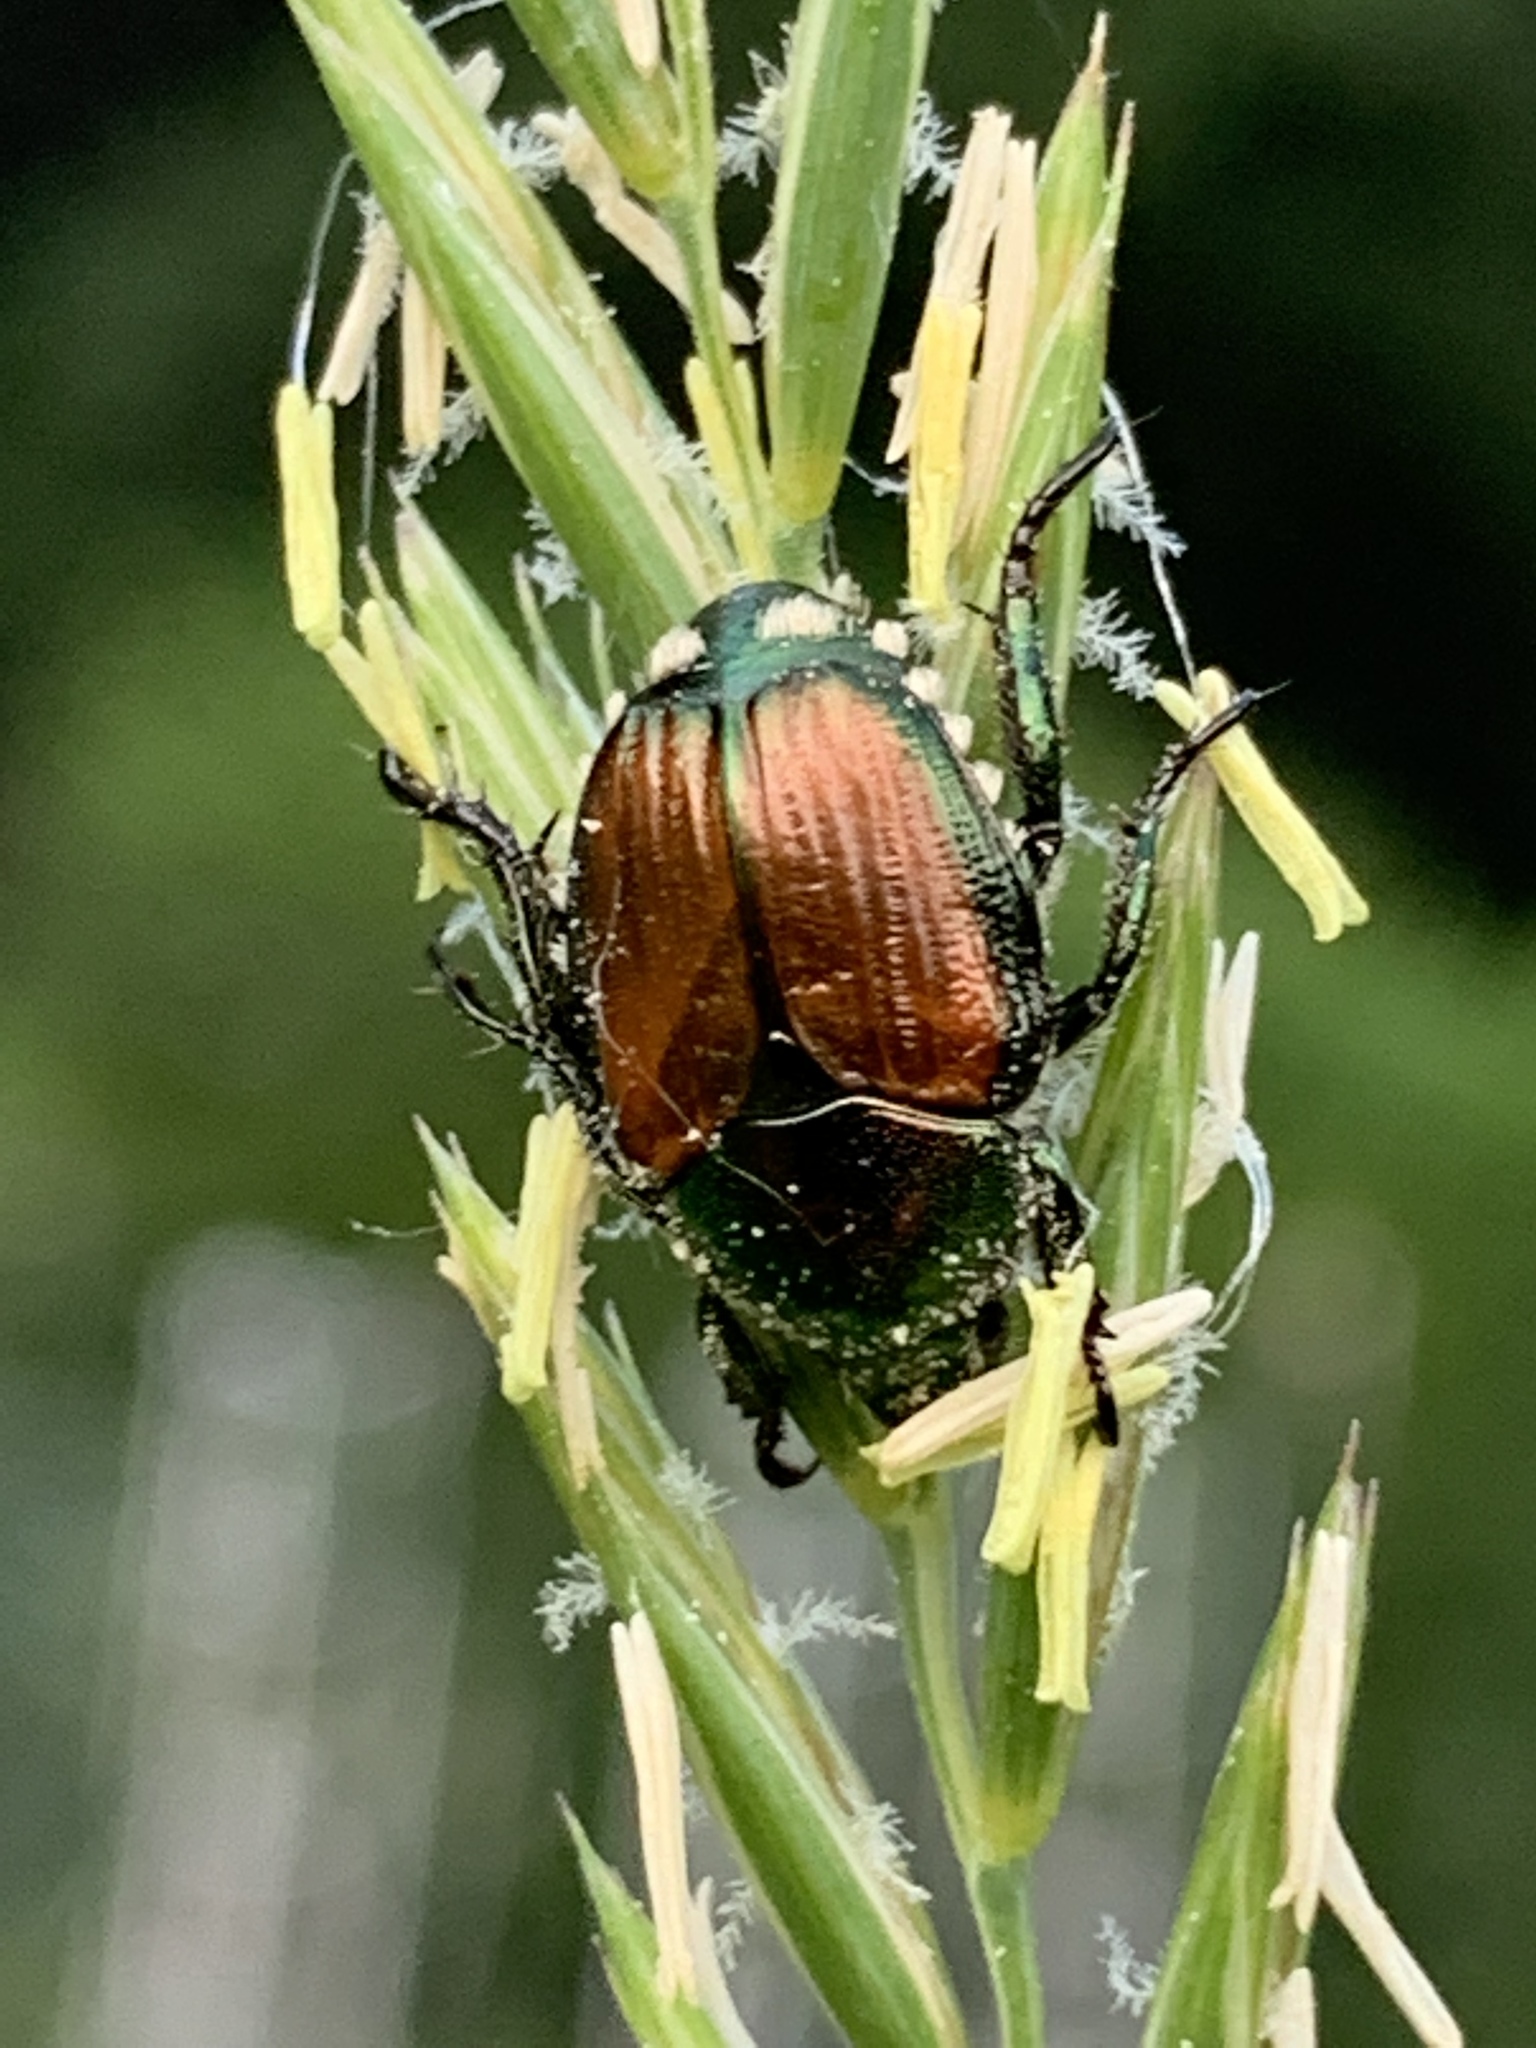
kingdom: Animalia
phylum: Arthropoda
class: Insecta
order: Coleoptera
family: Scarabaeidae
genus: Popillia
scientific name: Popillia japonica
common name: Japanese beetle
